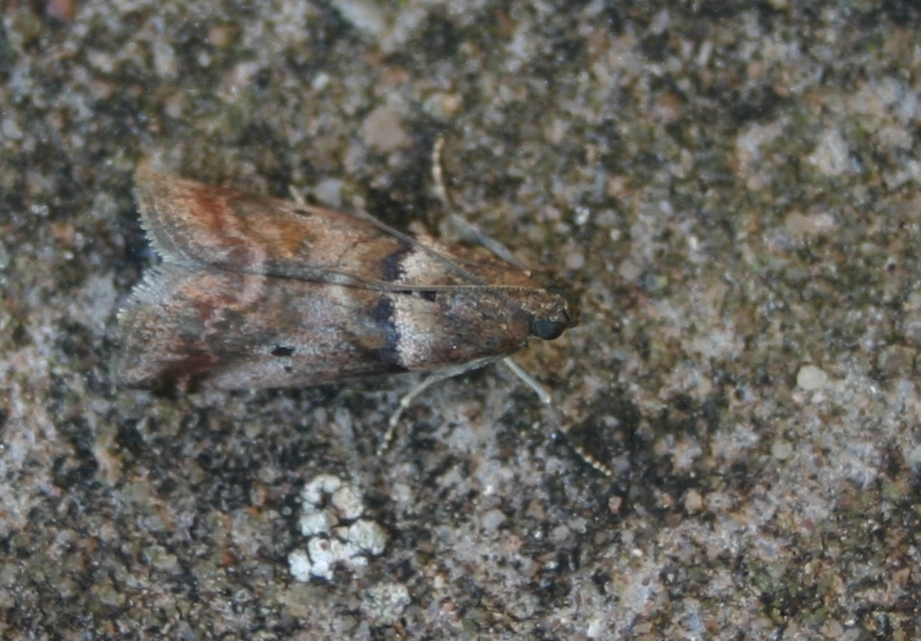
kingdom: Animalia
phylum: Arthropoda
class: Insecta
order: Lepidoptera
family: Pyralidae
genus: Acrobasis
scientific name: Acrobasis consociella
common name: Broad-barred knot-horn
